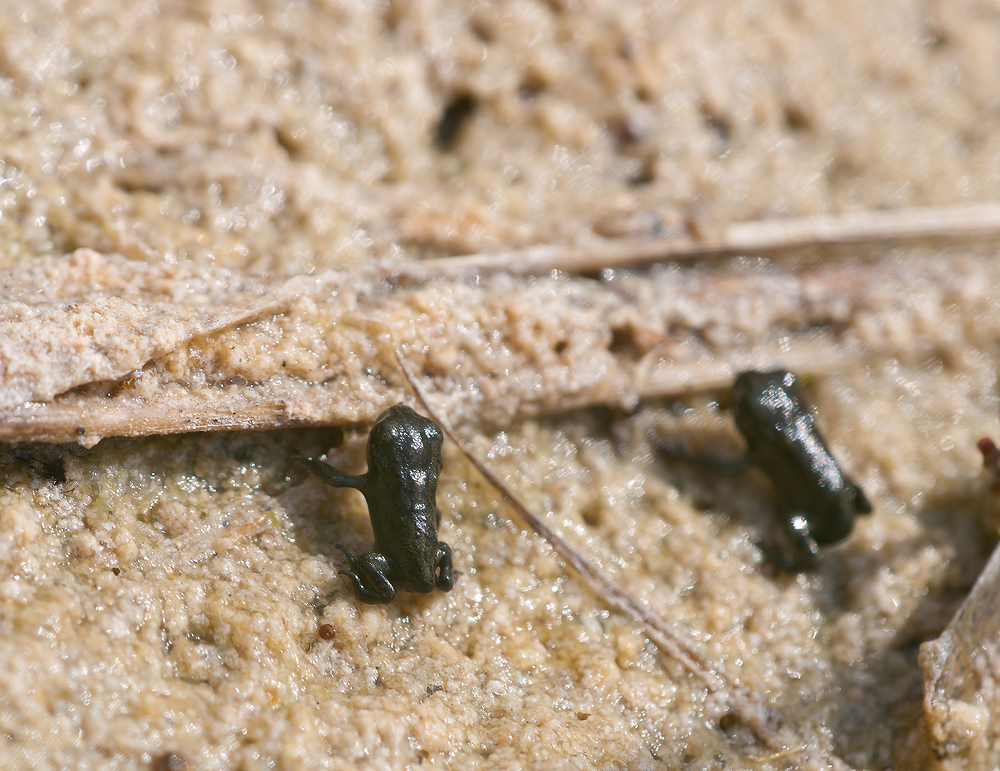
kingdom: Animalia
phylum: Chordata
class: Amphibia
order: Anura
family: Bufonidae
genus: Epidalea
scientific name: Epidalea calamita
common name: Natterjack toad
